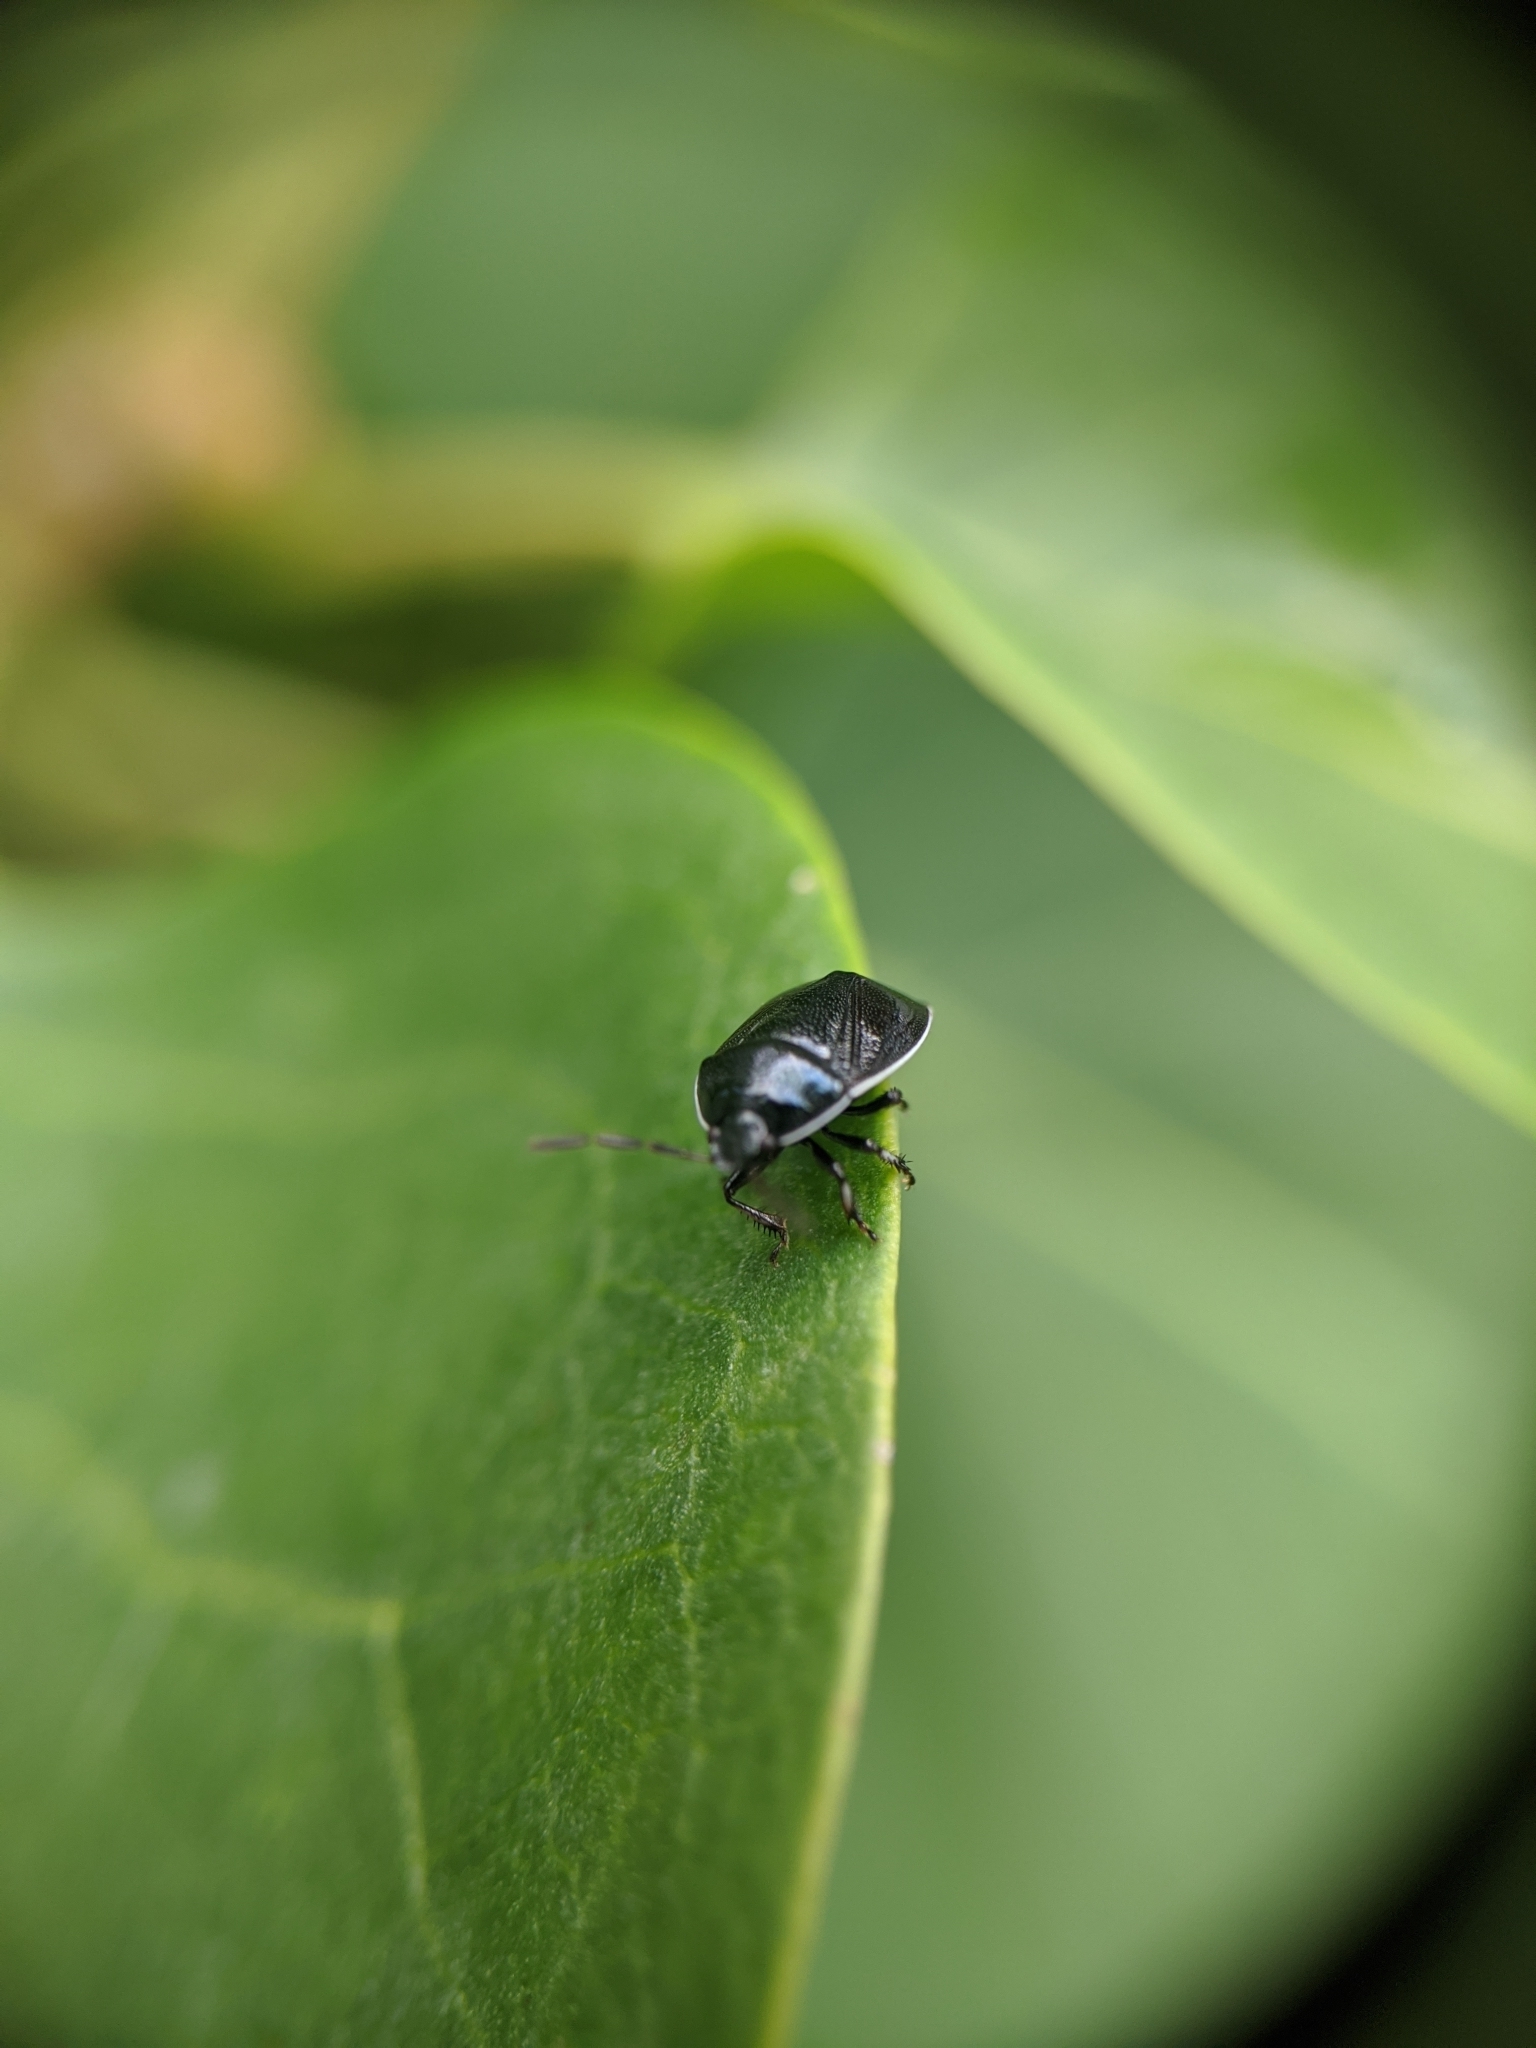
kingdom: Animalia
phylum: Arthropoda
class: Insecta
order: Hemiptera
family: Cydnidae
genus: Sehirus
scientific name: Sehirus cinctus
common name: White-margined burrower bug
